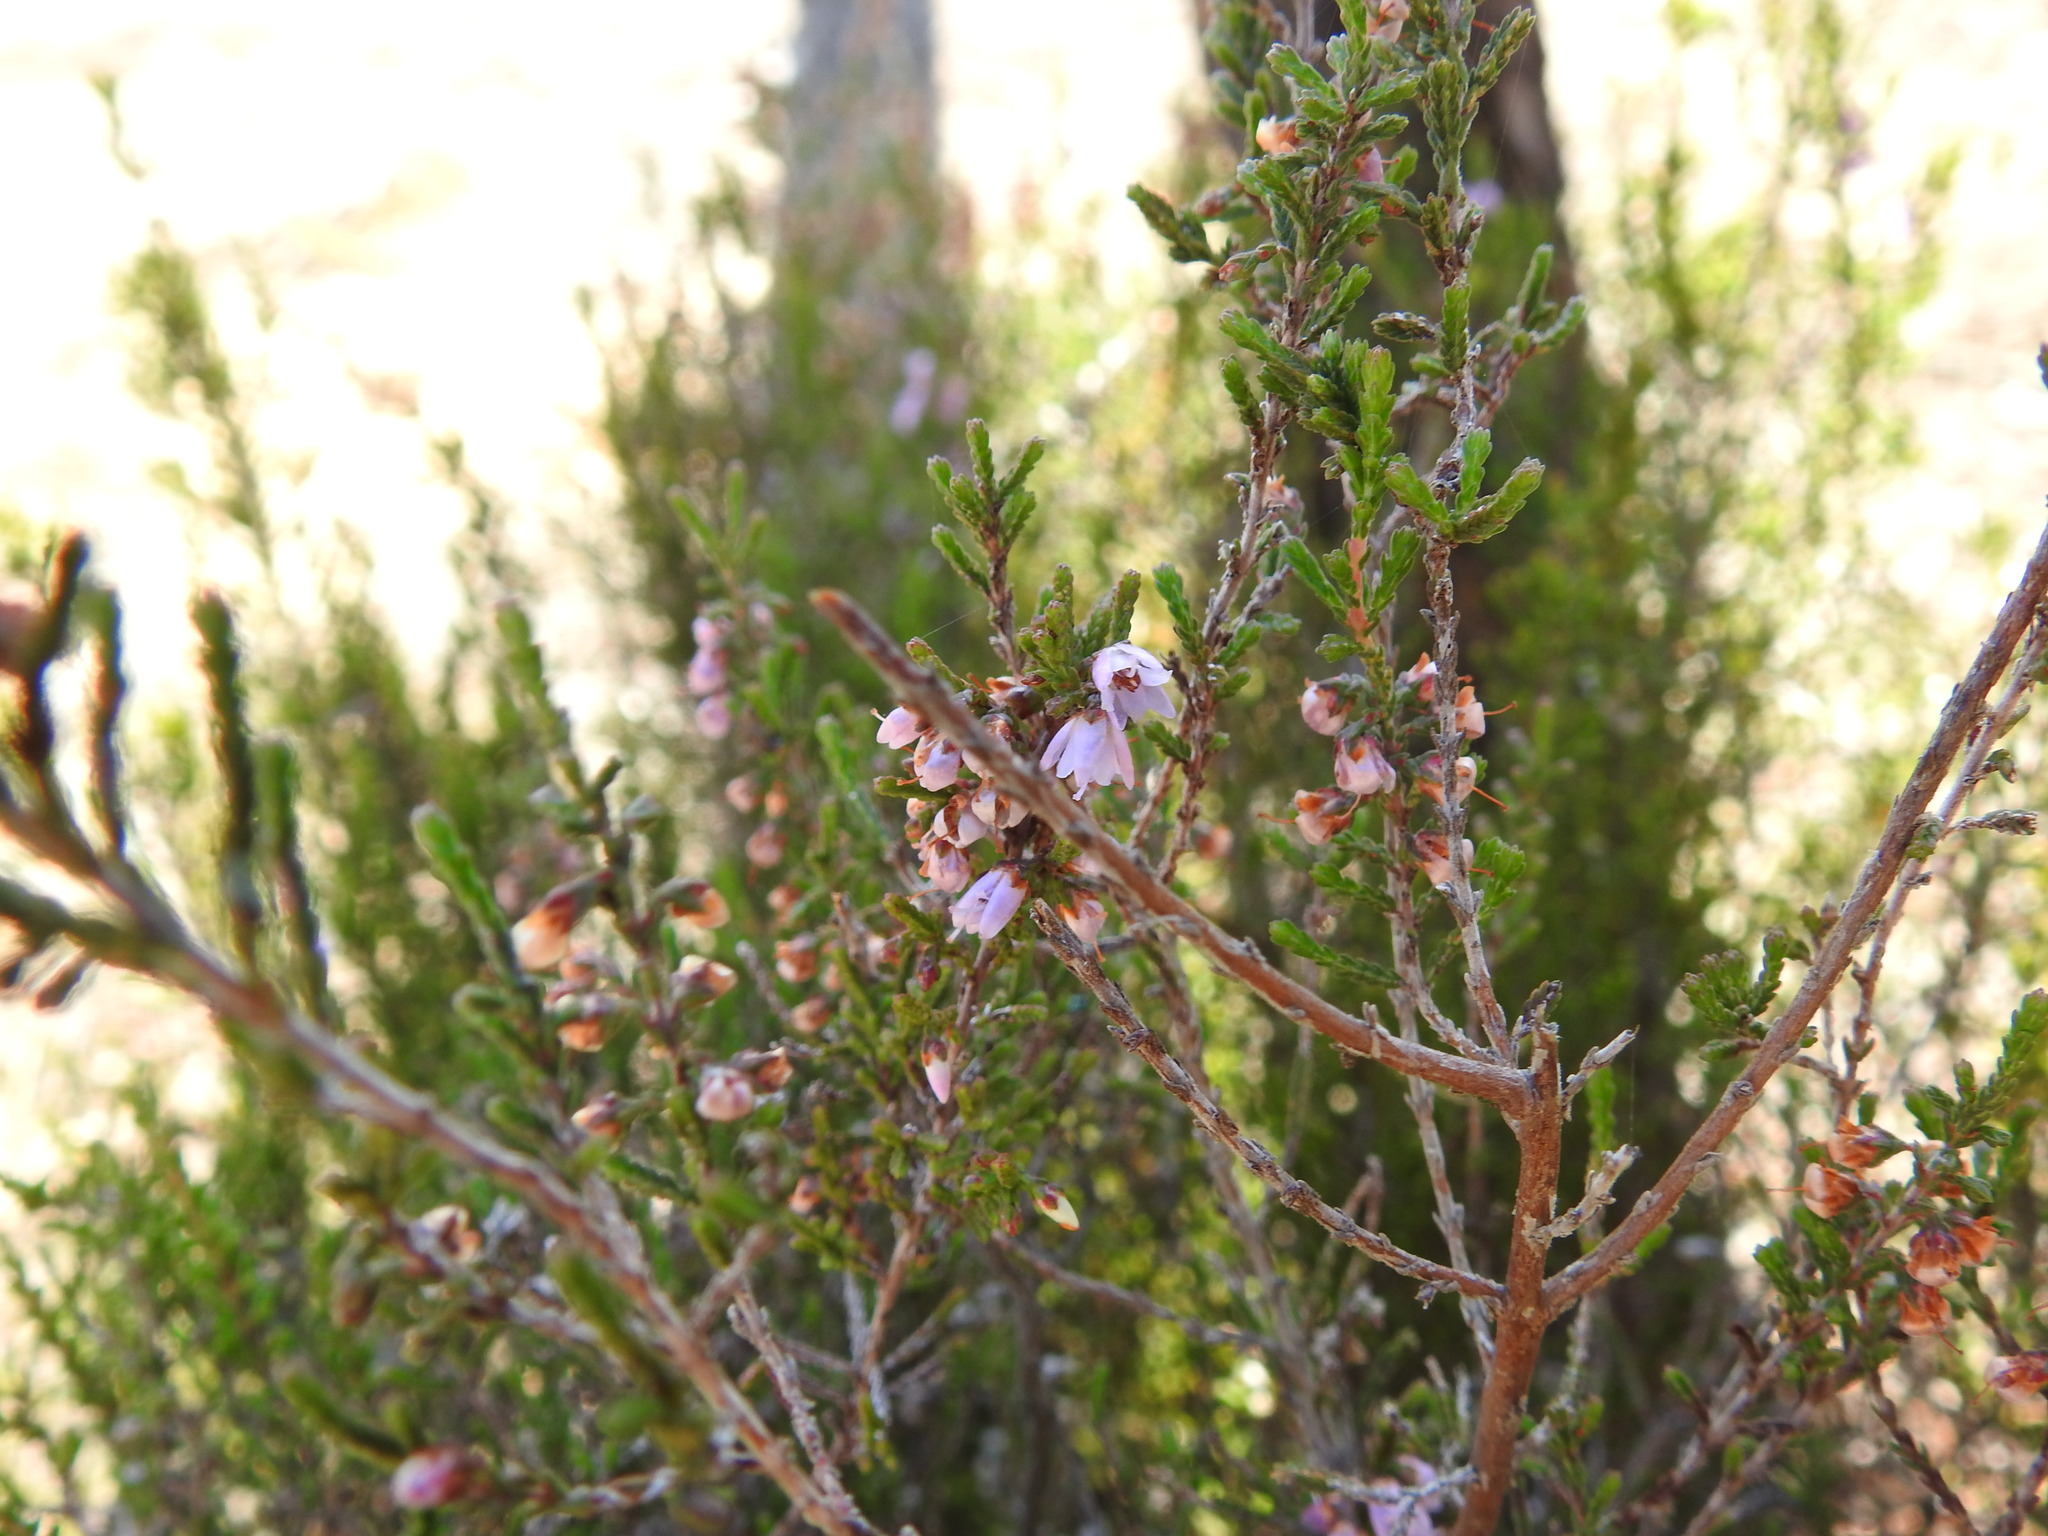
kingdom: Plantae
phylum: Tracheophyta
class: Magnoliopsida
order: Ericales
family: Ericaceae
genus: Calluna
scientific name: Calluna vulgaris
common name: Heather
